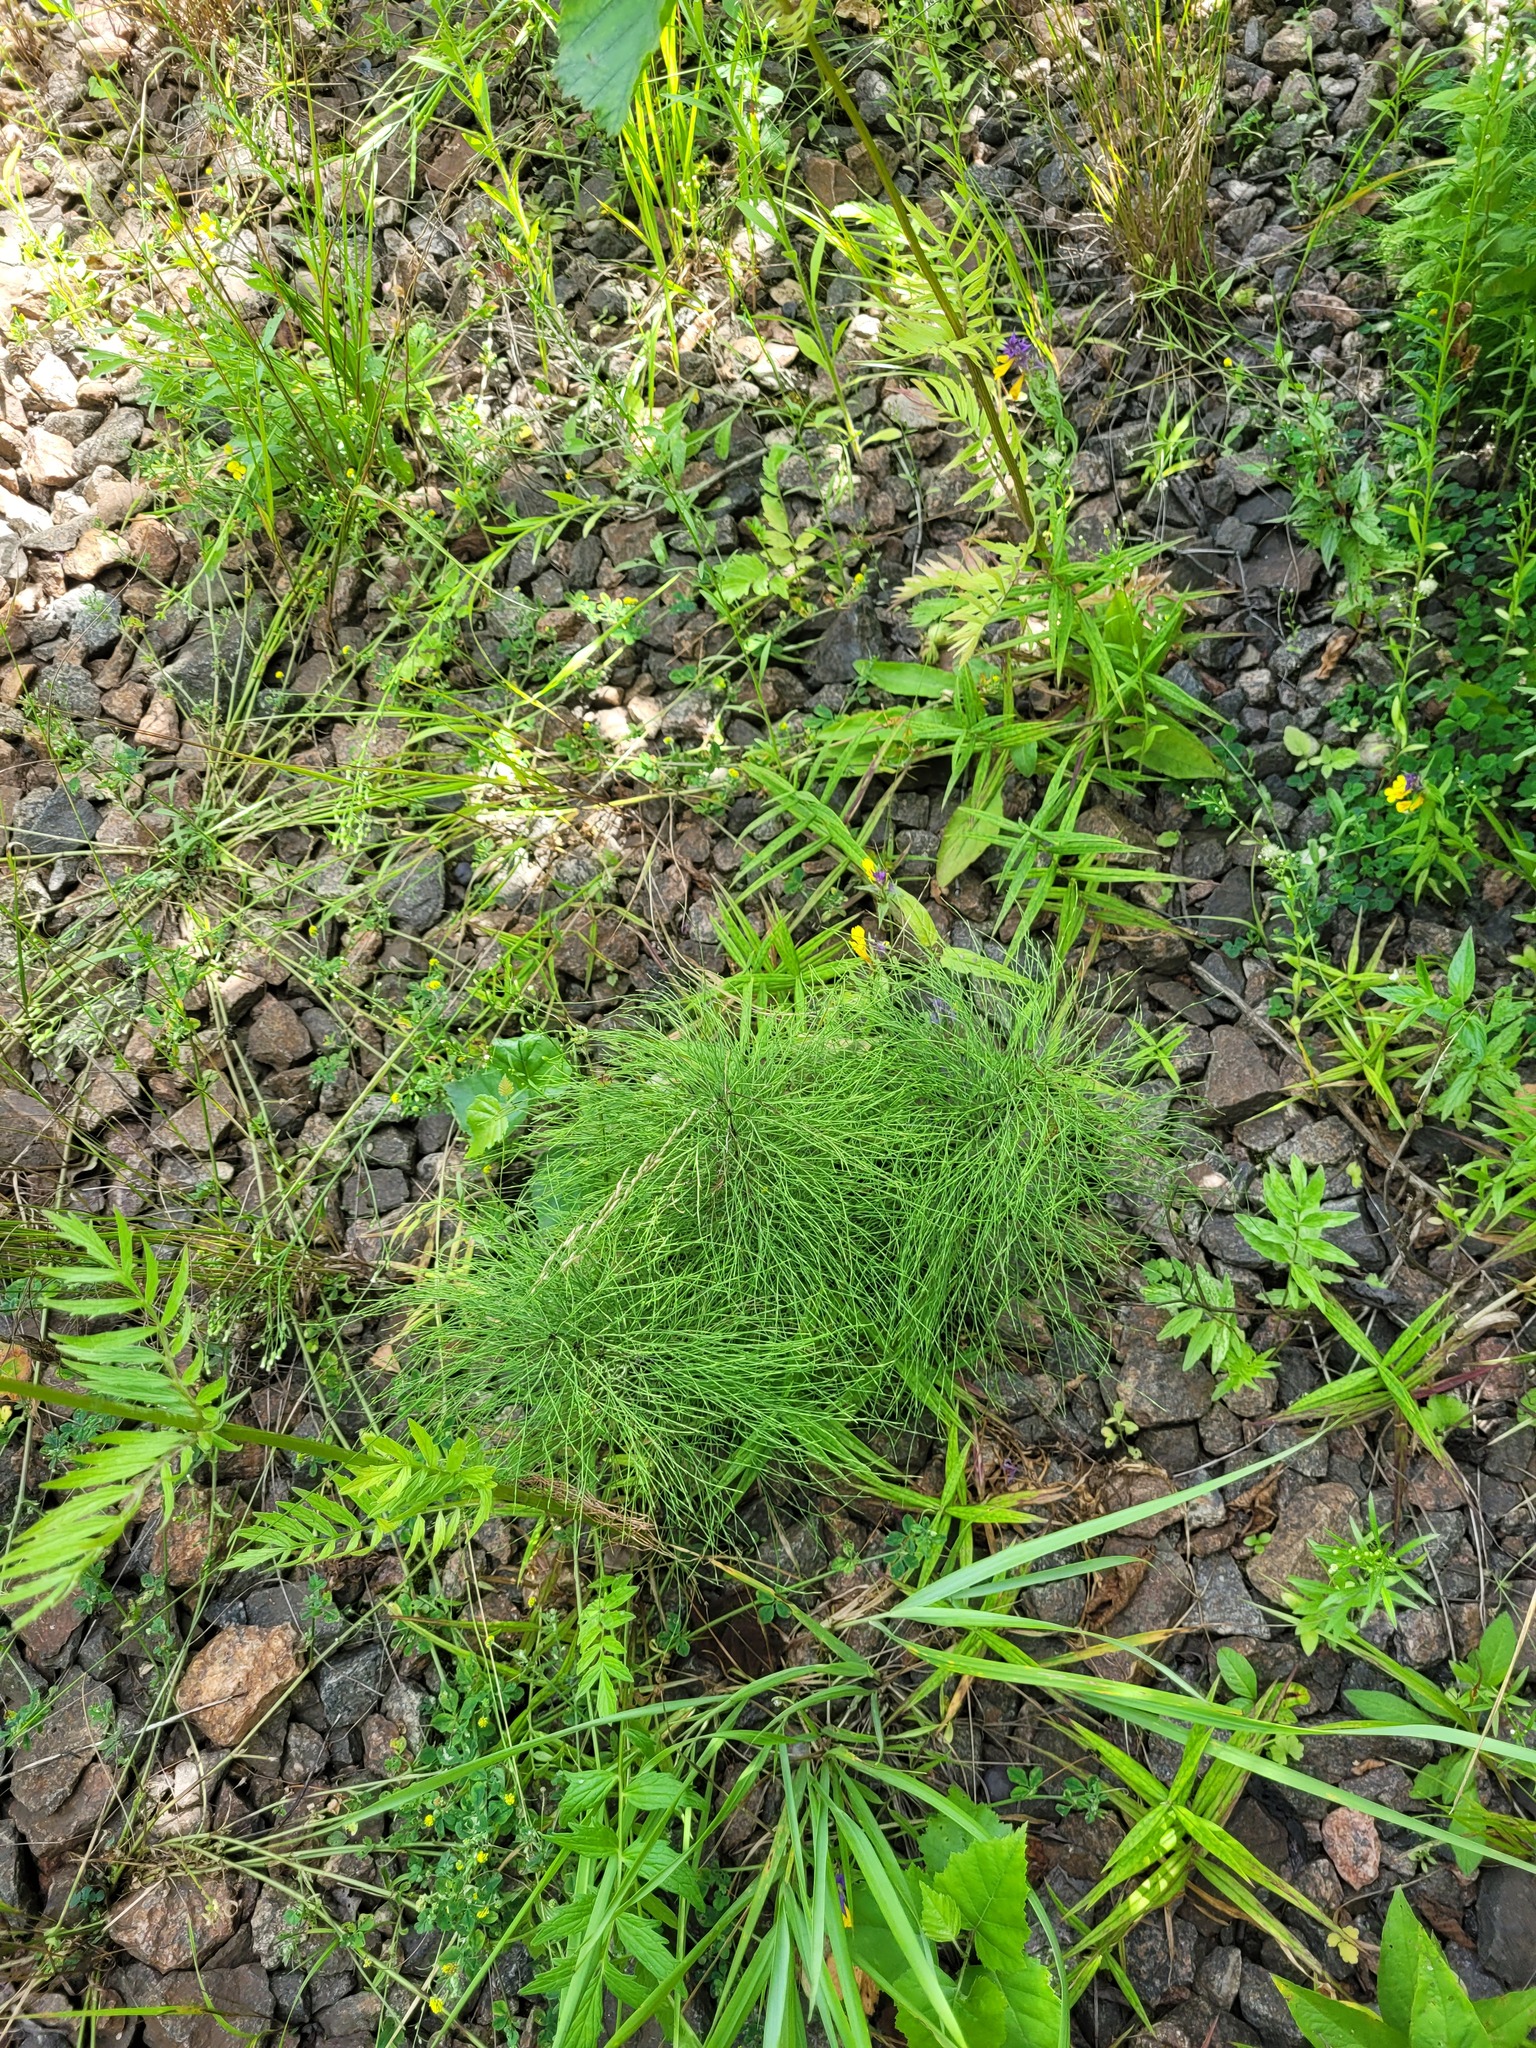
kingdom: Plantae
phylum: Tracheophyta
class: Polypodiopsida
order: Equisetales
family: Equisetaceae
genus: Equisetum
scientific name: Equisetum sylvaticum
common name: Wood horsetail
